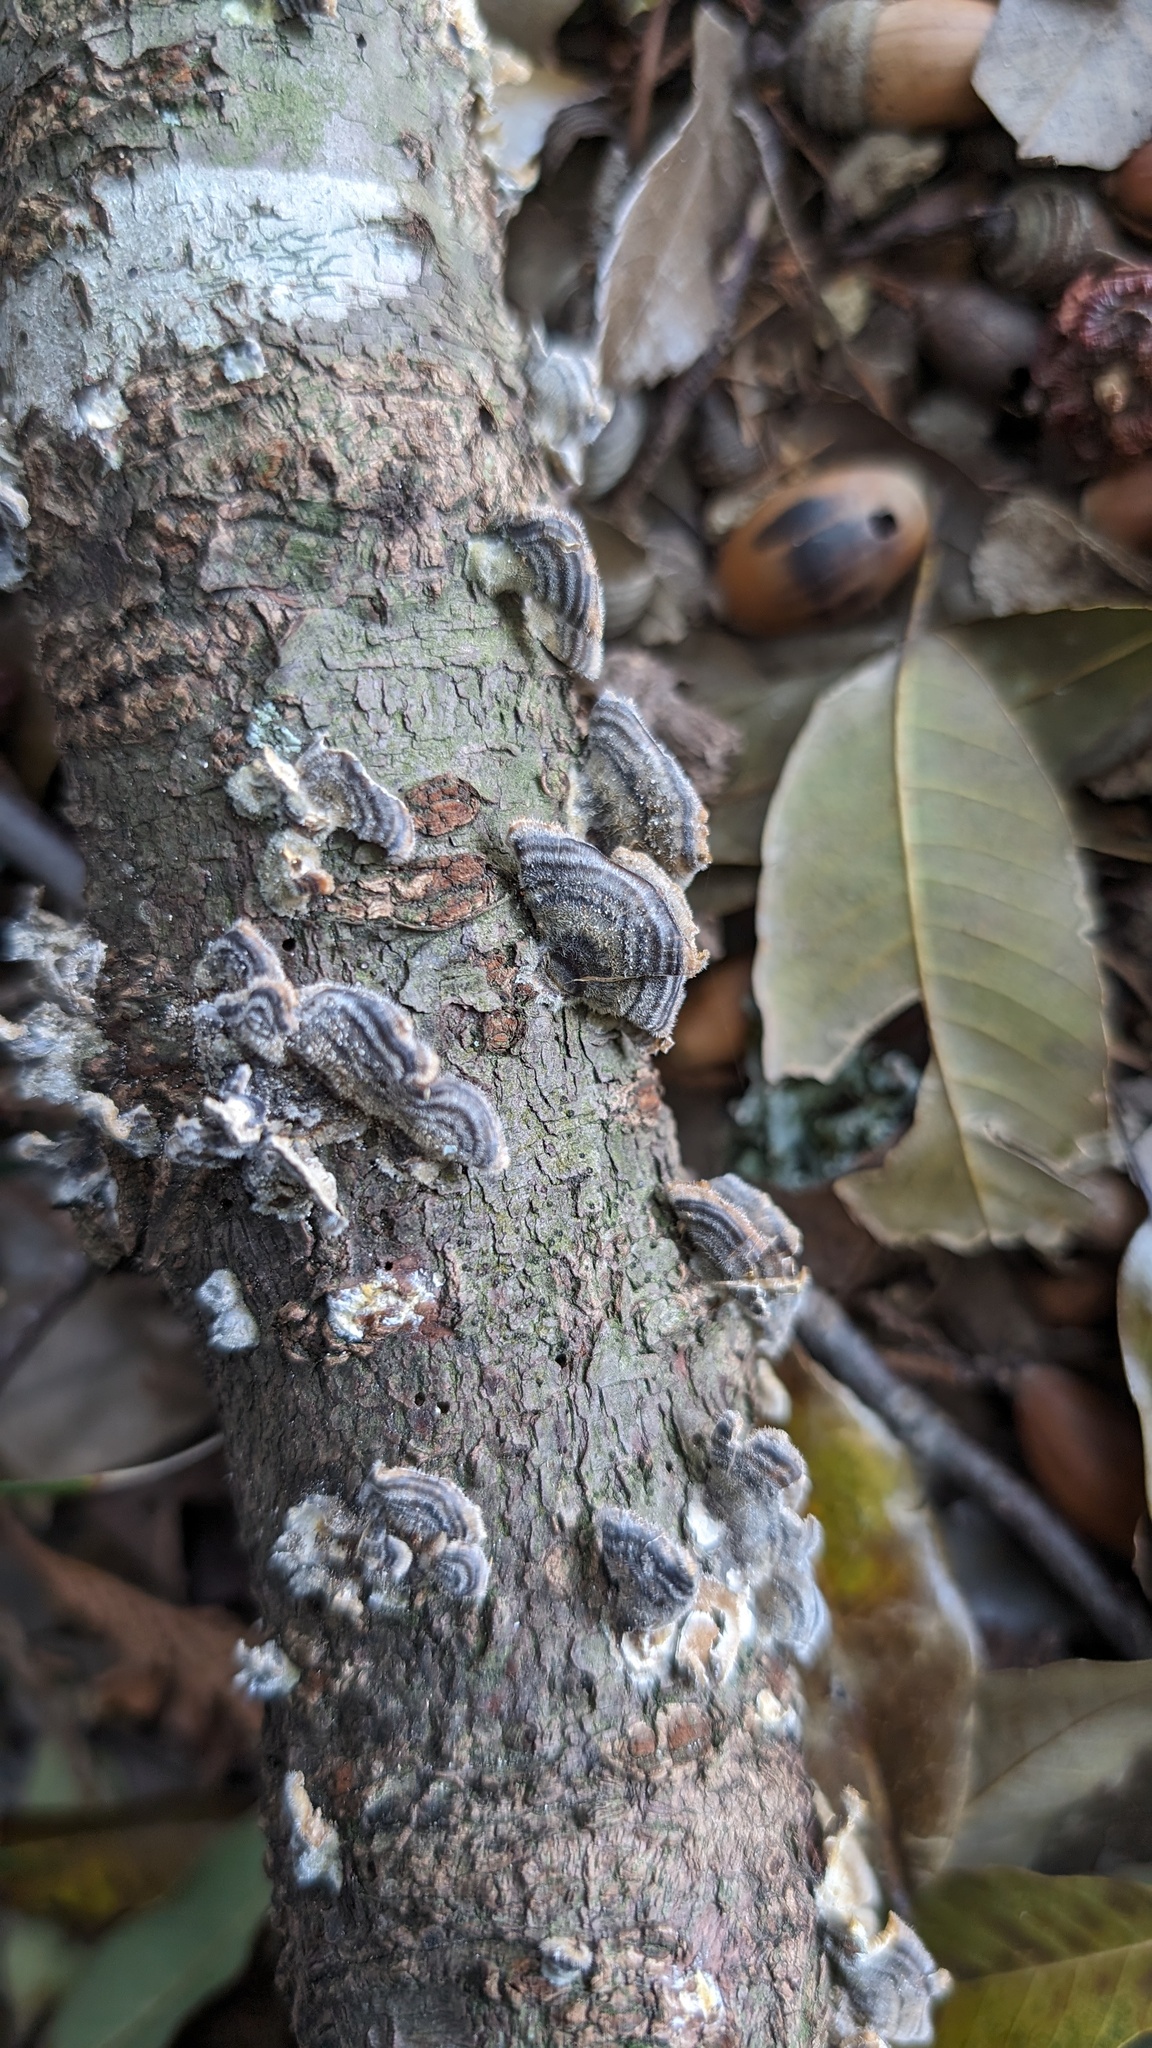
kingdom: Fungi
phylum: Basidiomycota
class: Agaricomycetes
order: Polyporales
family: Polyporaceae
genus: Trametes
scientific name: Trametes versicolor
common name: Turkeytail
